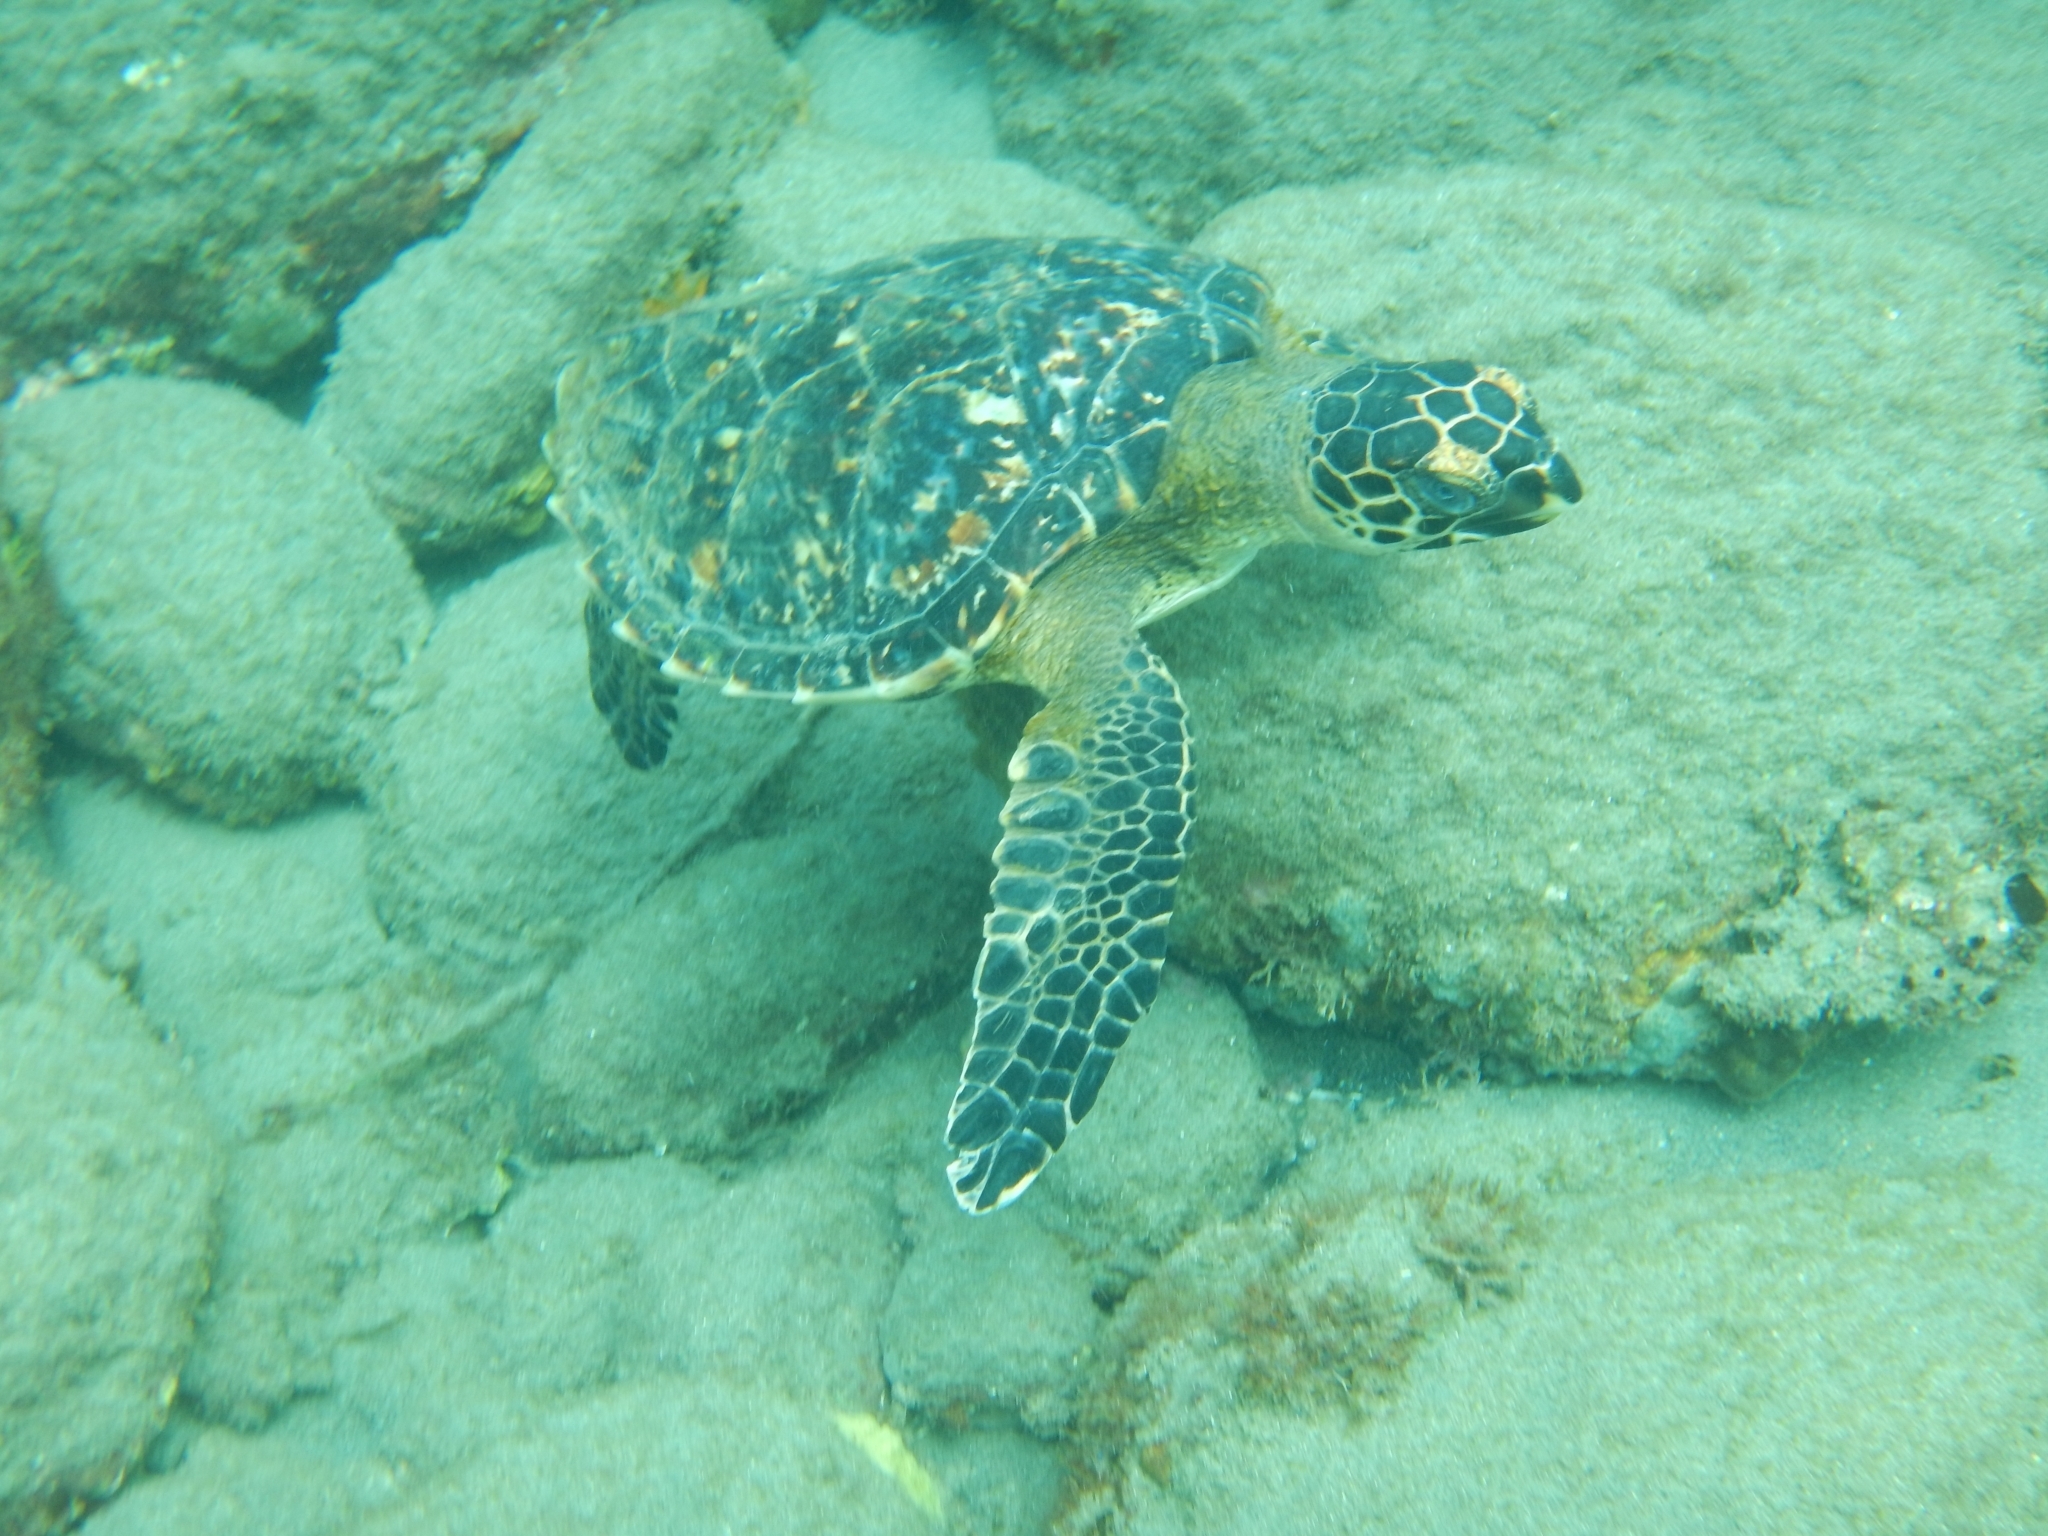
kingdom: Animalia
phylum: Chordata
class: Testudines
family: Cheloniidae
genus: Eretmochelys
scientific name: Eretmochelys imbricata
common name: Hawksbill turtle
